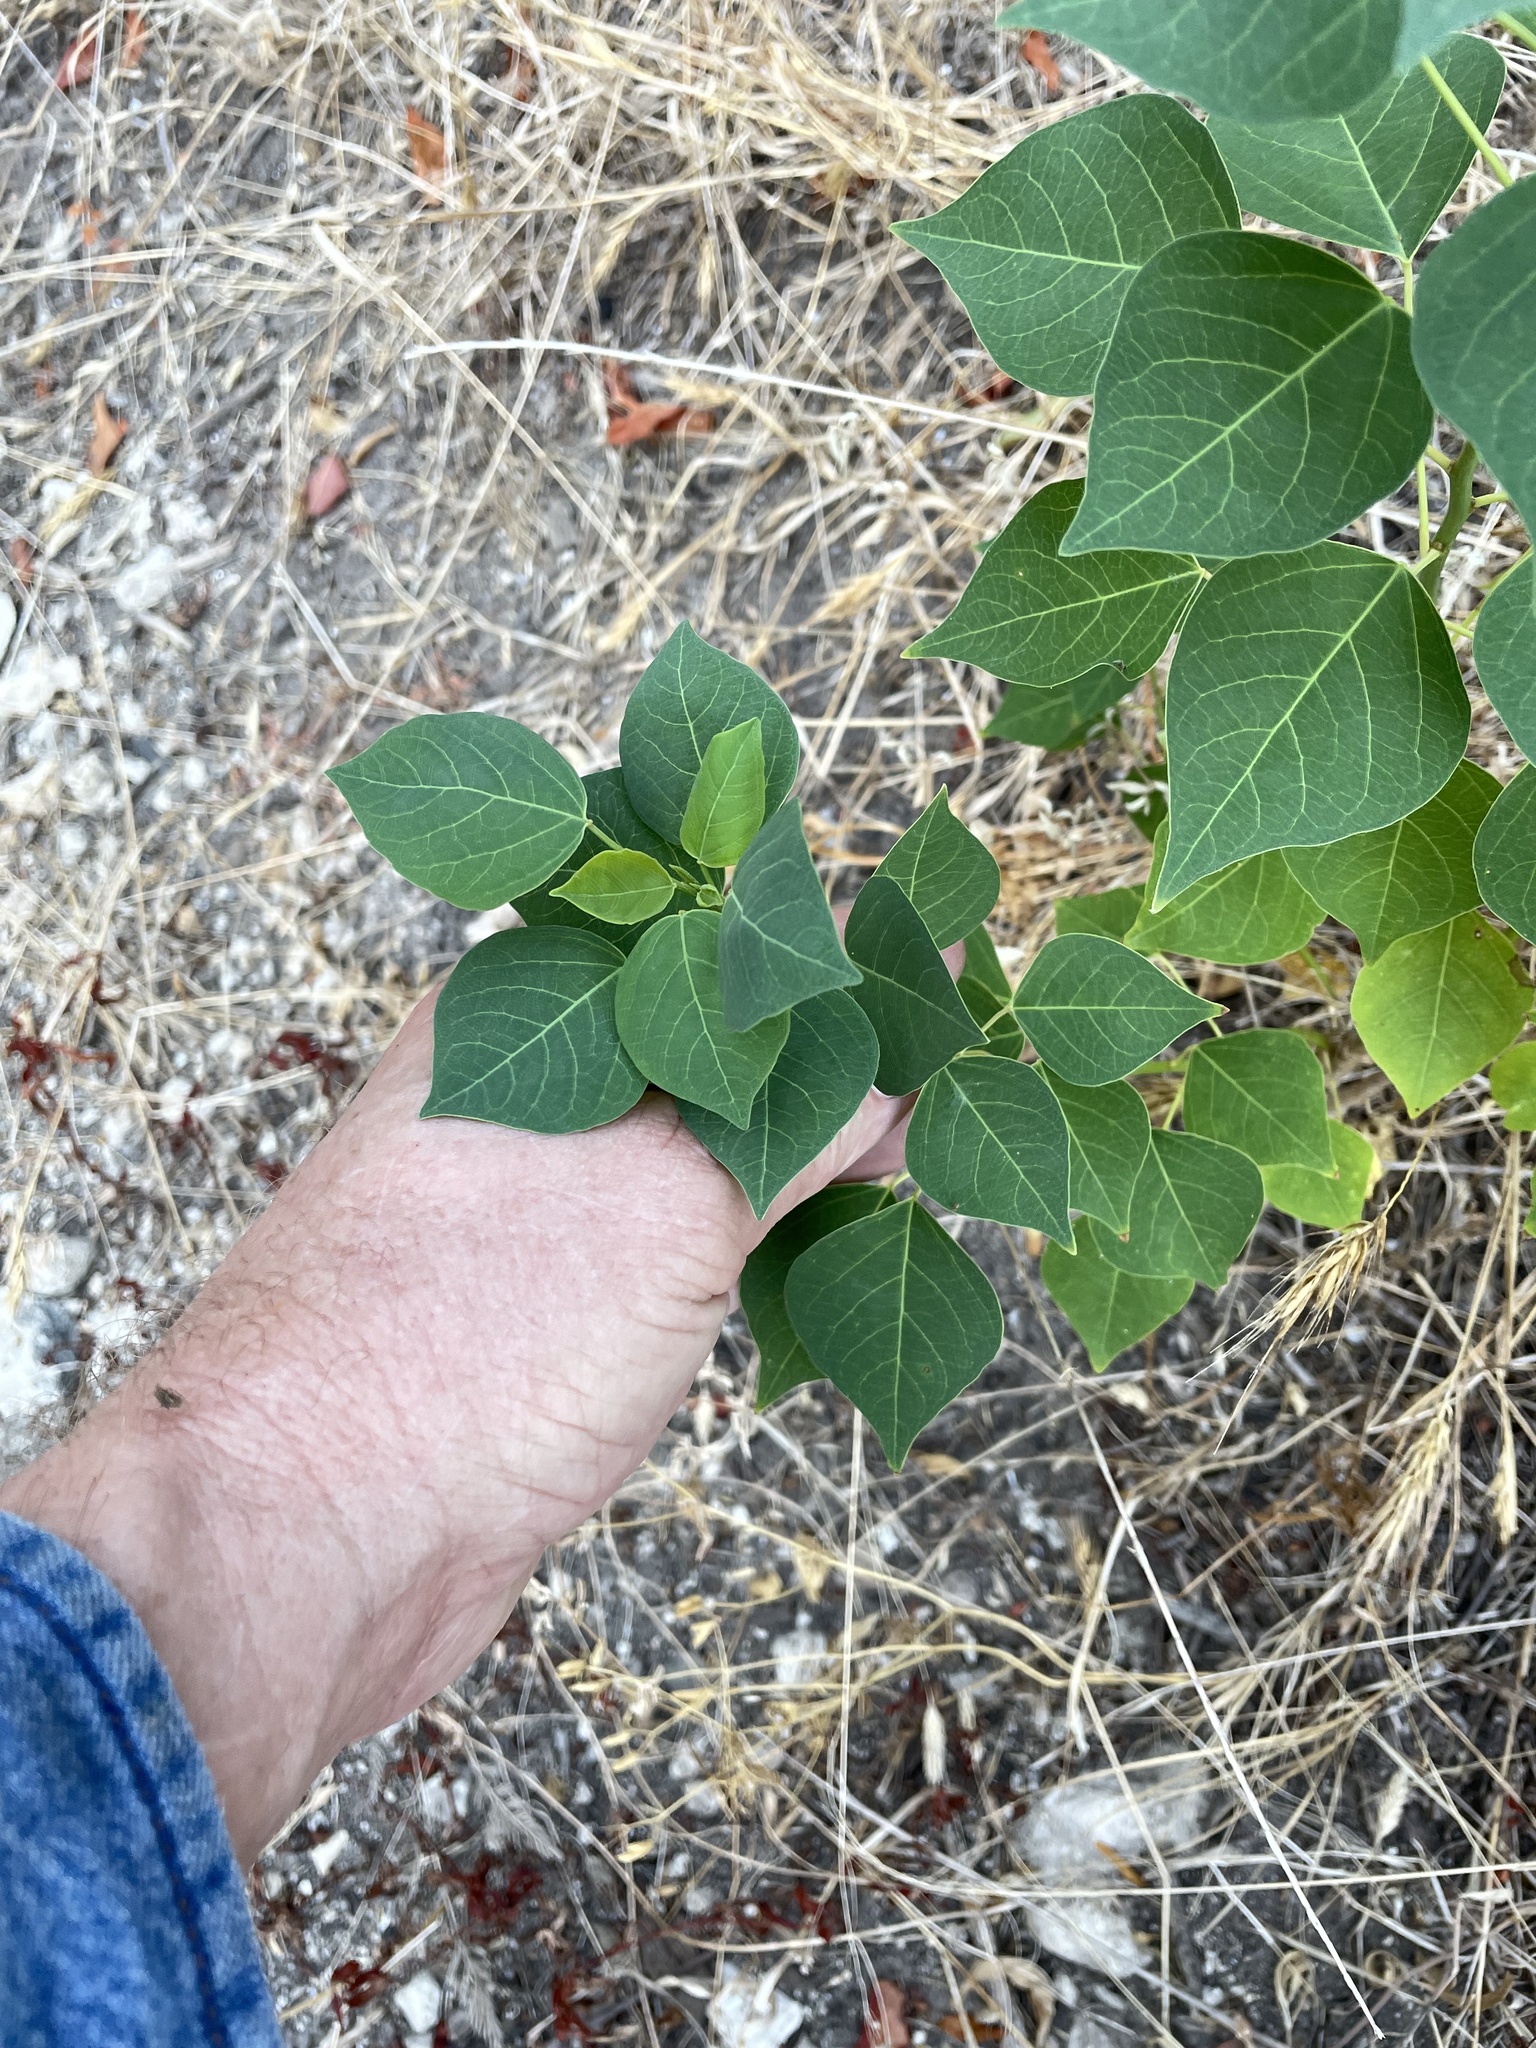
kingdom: Plantae
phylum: Tracheophyta
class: Magnoliopsida
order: Malpighiales
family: Euphorbiaceae
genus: Triadica
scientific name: Triadica sebifera
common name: Chinese tallow
